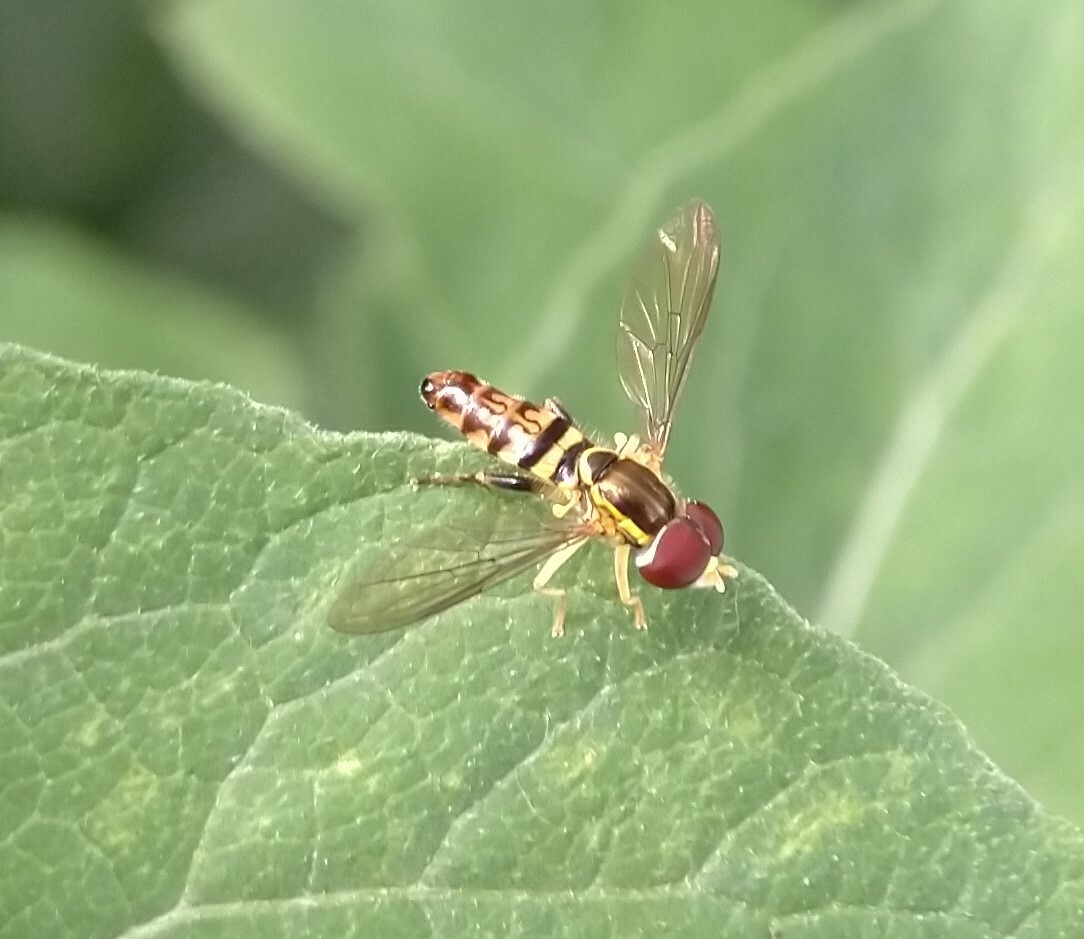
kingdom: Animalia
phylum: Arthropoda
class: Insecta
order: Diptera
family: Syrphidae
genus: Toxomerus
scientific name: Toxomerus geminatus
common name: Eastern calligrapher
